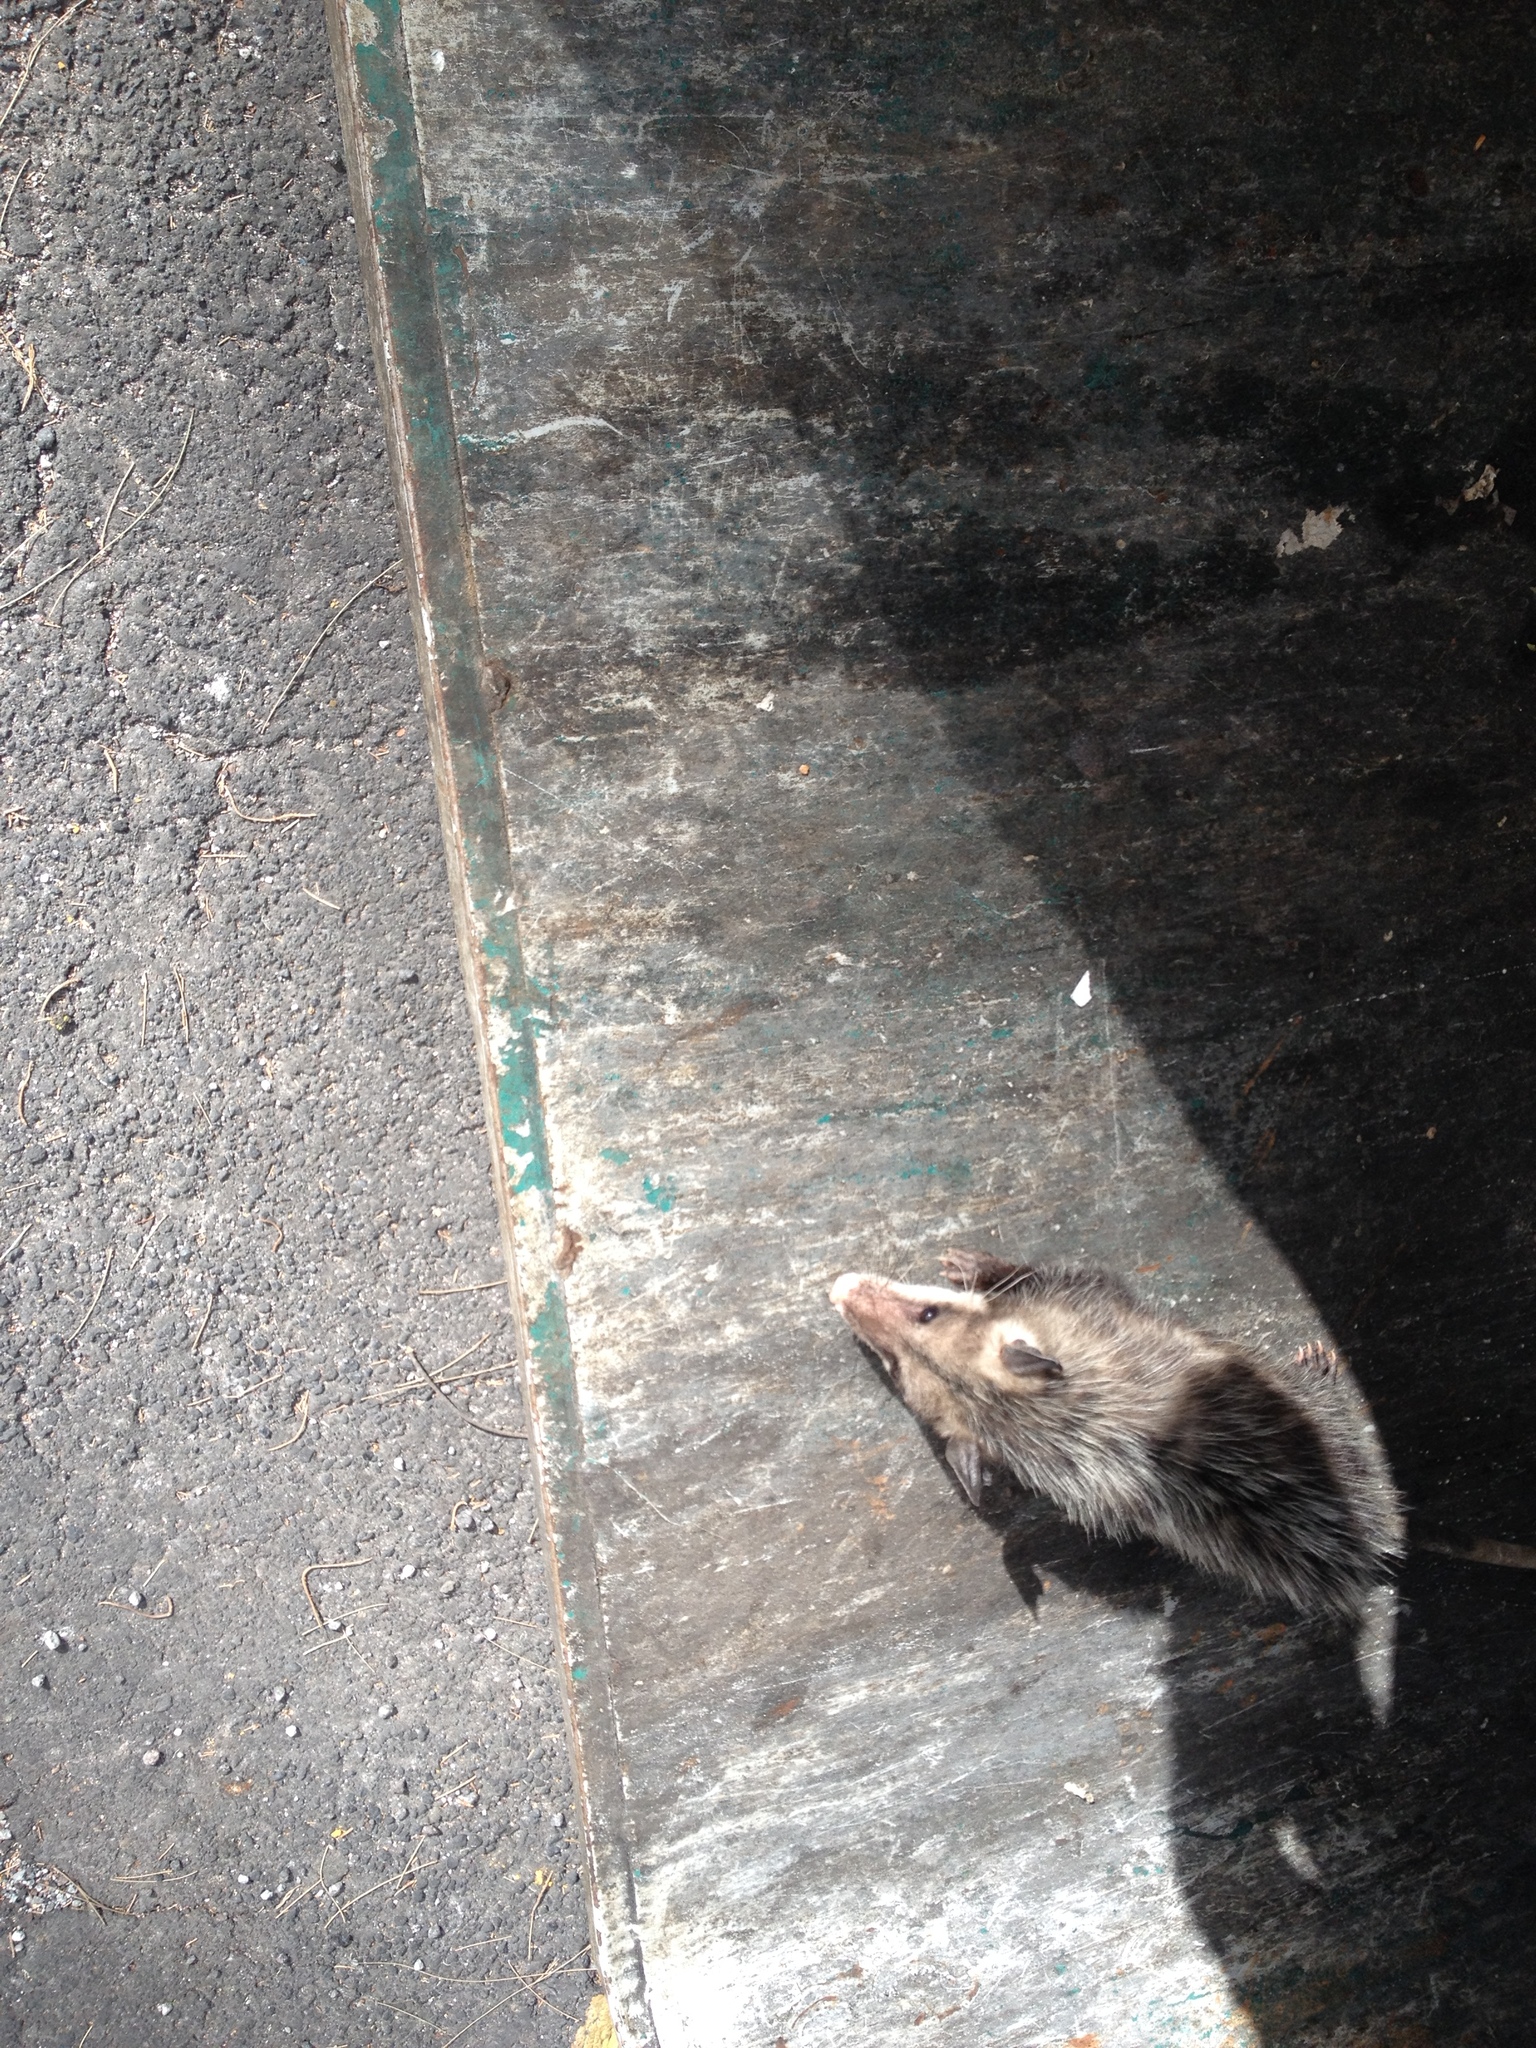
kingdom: Animalia
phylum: Chordata
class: Mammalia
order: Didelphimorphia
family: Didelphidae
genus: Didelphis
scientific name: Didelphis virginiana
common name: Virginia opossum
